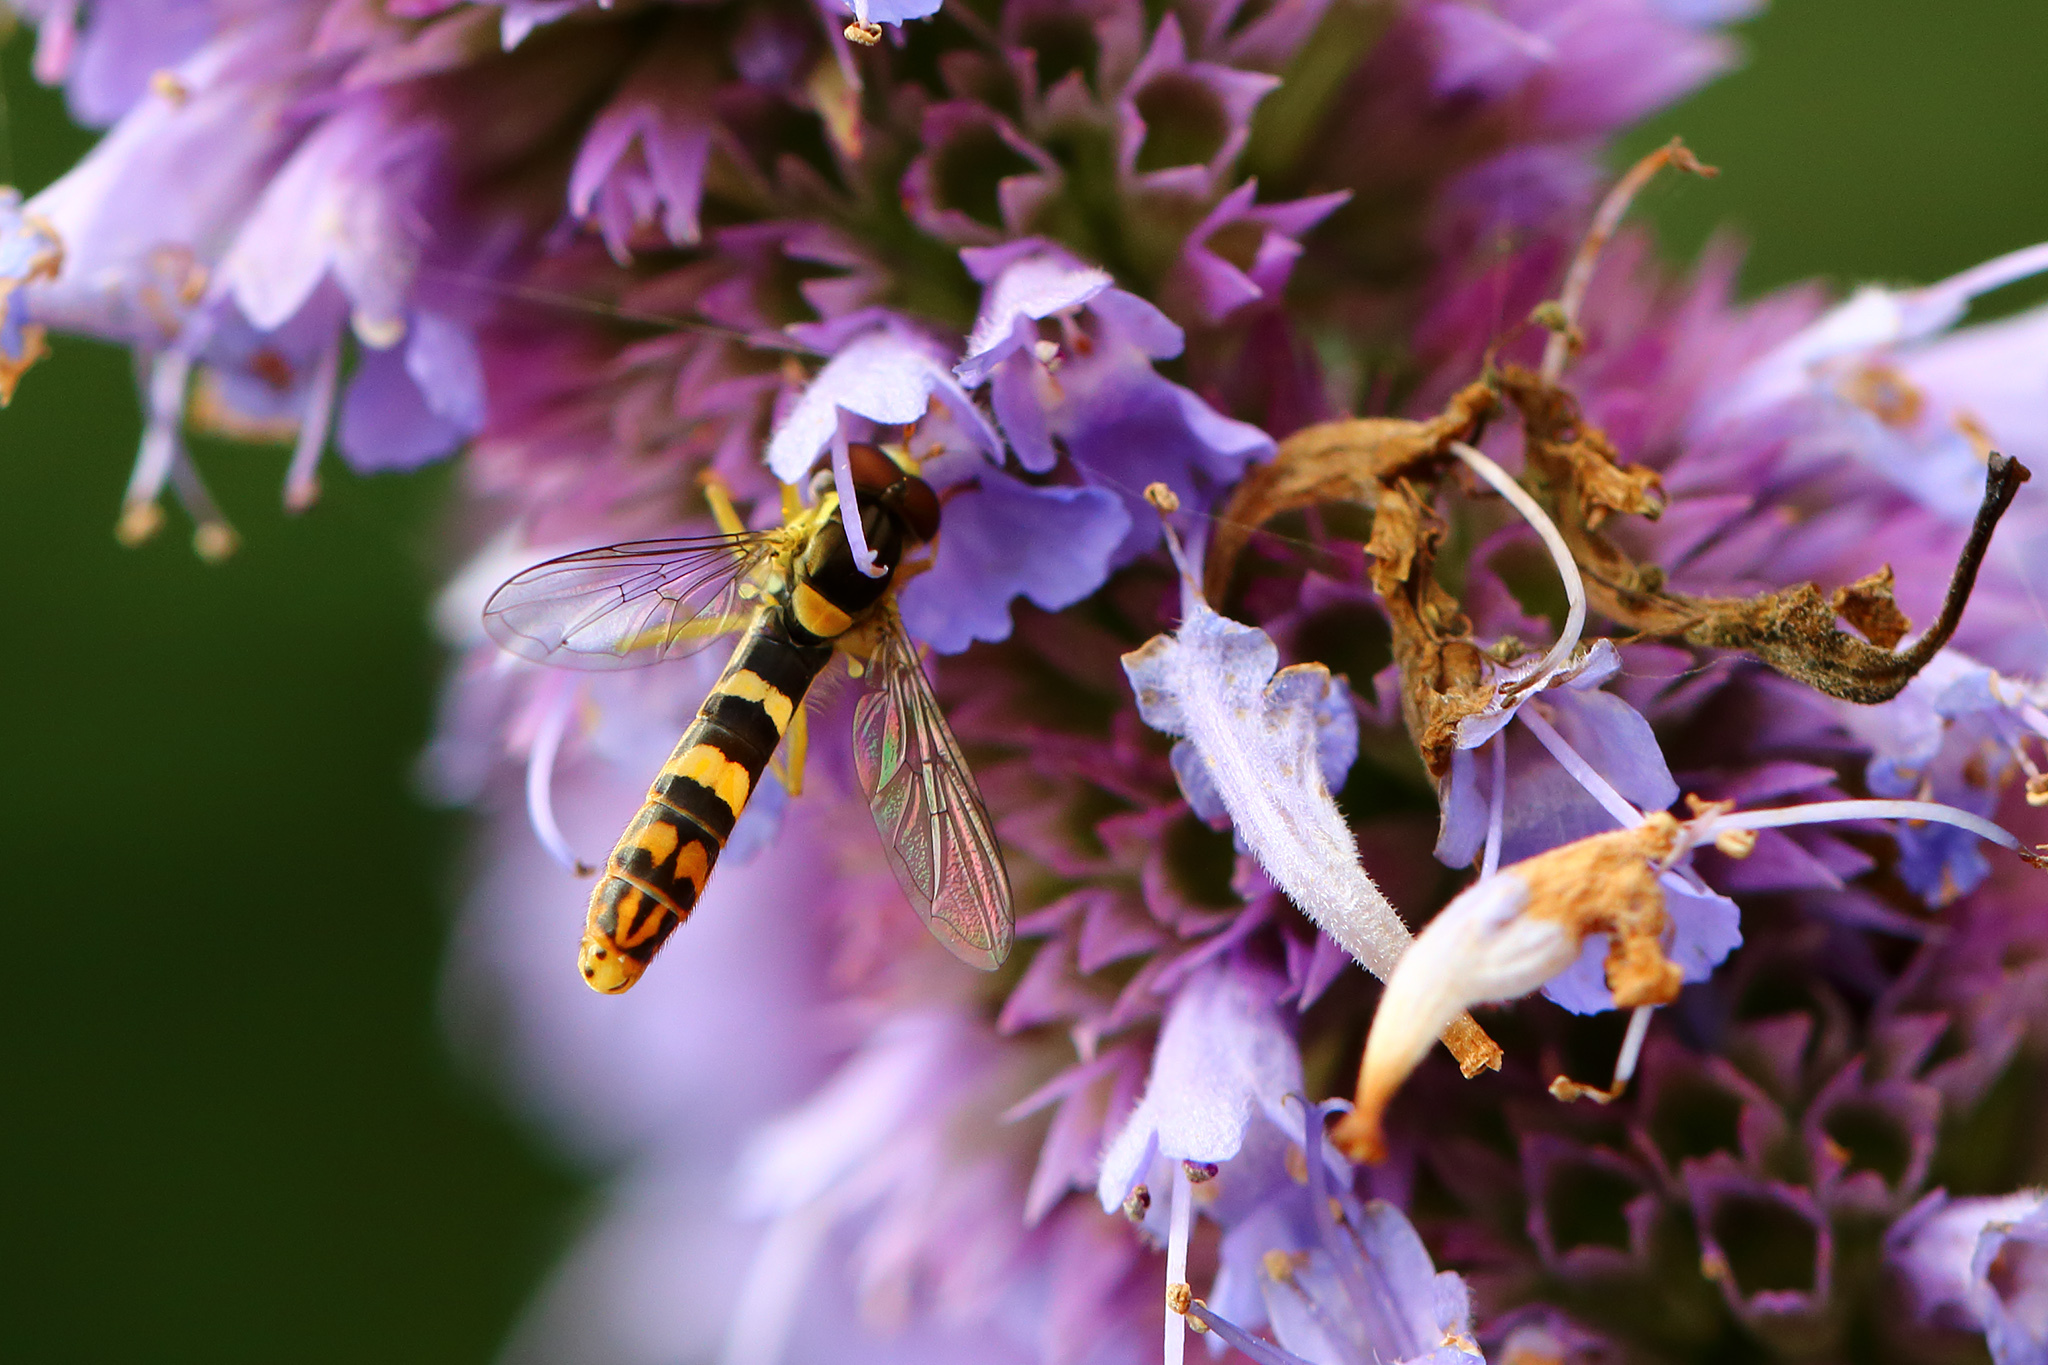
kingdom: Animalia
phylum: Arthropoda
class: Insecta
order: Diptera
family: Syrphidae
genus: Sphaerophoria
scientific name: Sphaerophoria scripta
